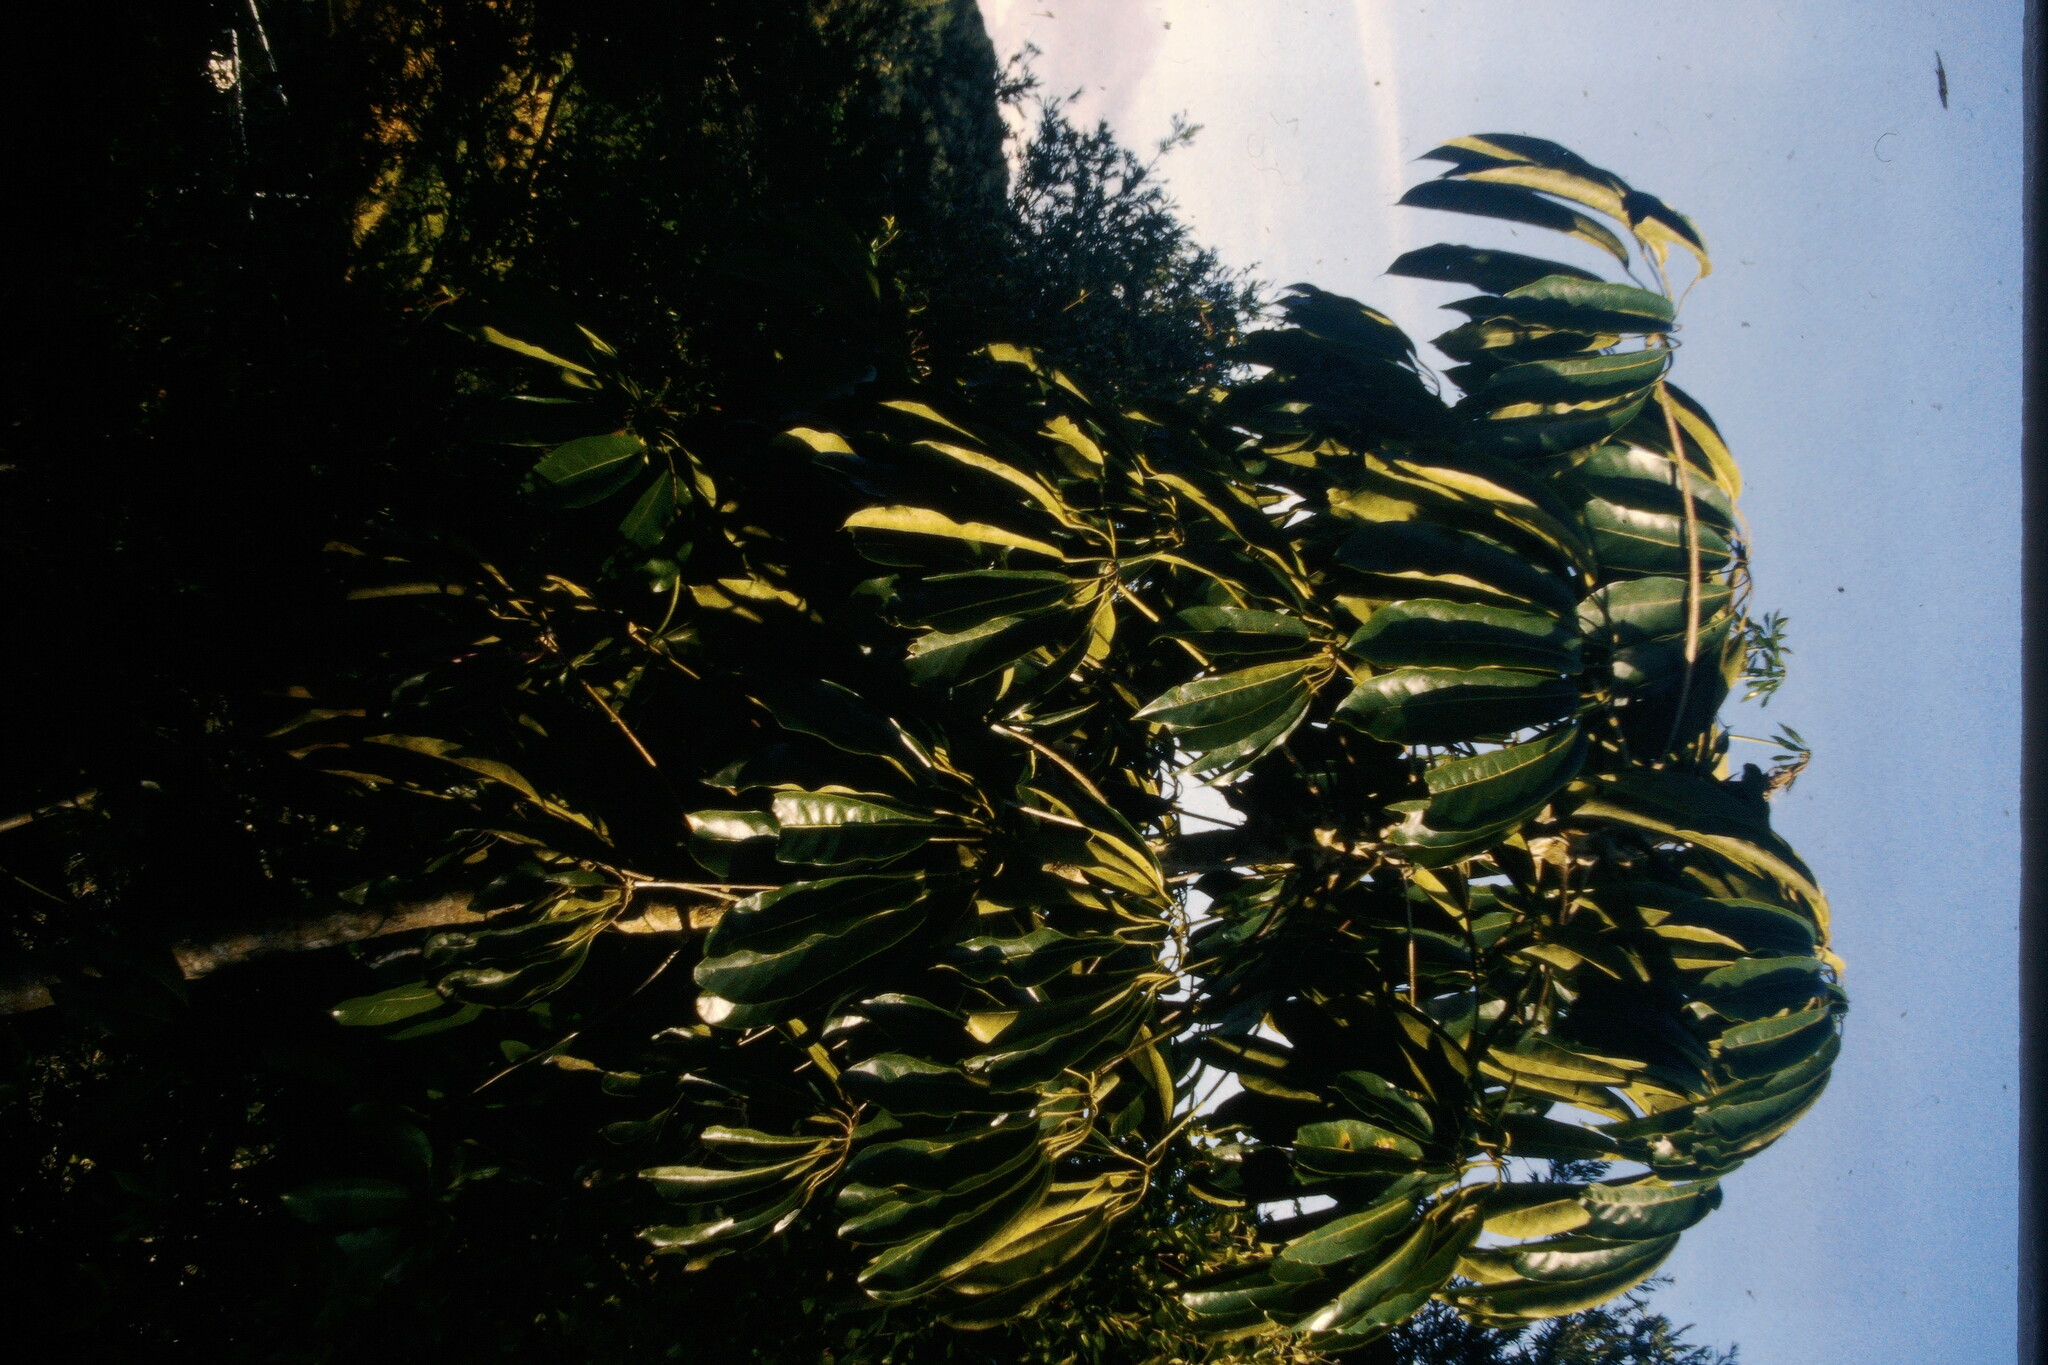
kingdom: Plantae
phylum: Tracheophyta
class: Magnoliopsida
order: Apiales
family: Araliaceae
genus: Heptapleurum
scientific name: Heptapleurum actinophyllum
